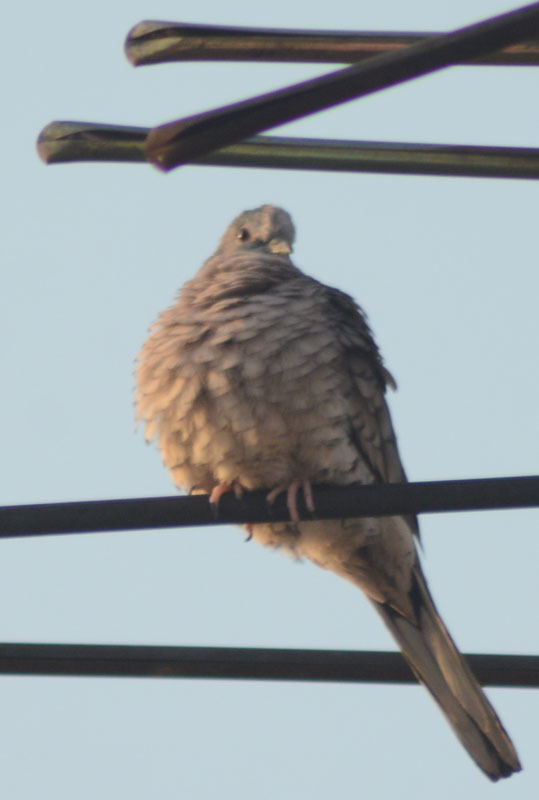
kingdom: Animalia
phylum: Chordata
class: Aves
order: Columbiformes
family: Columbidae
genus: Columbina
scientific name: Columbina inca
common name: Inca dove
